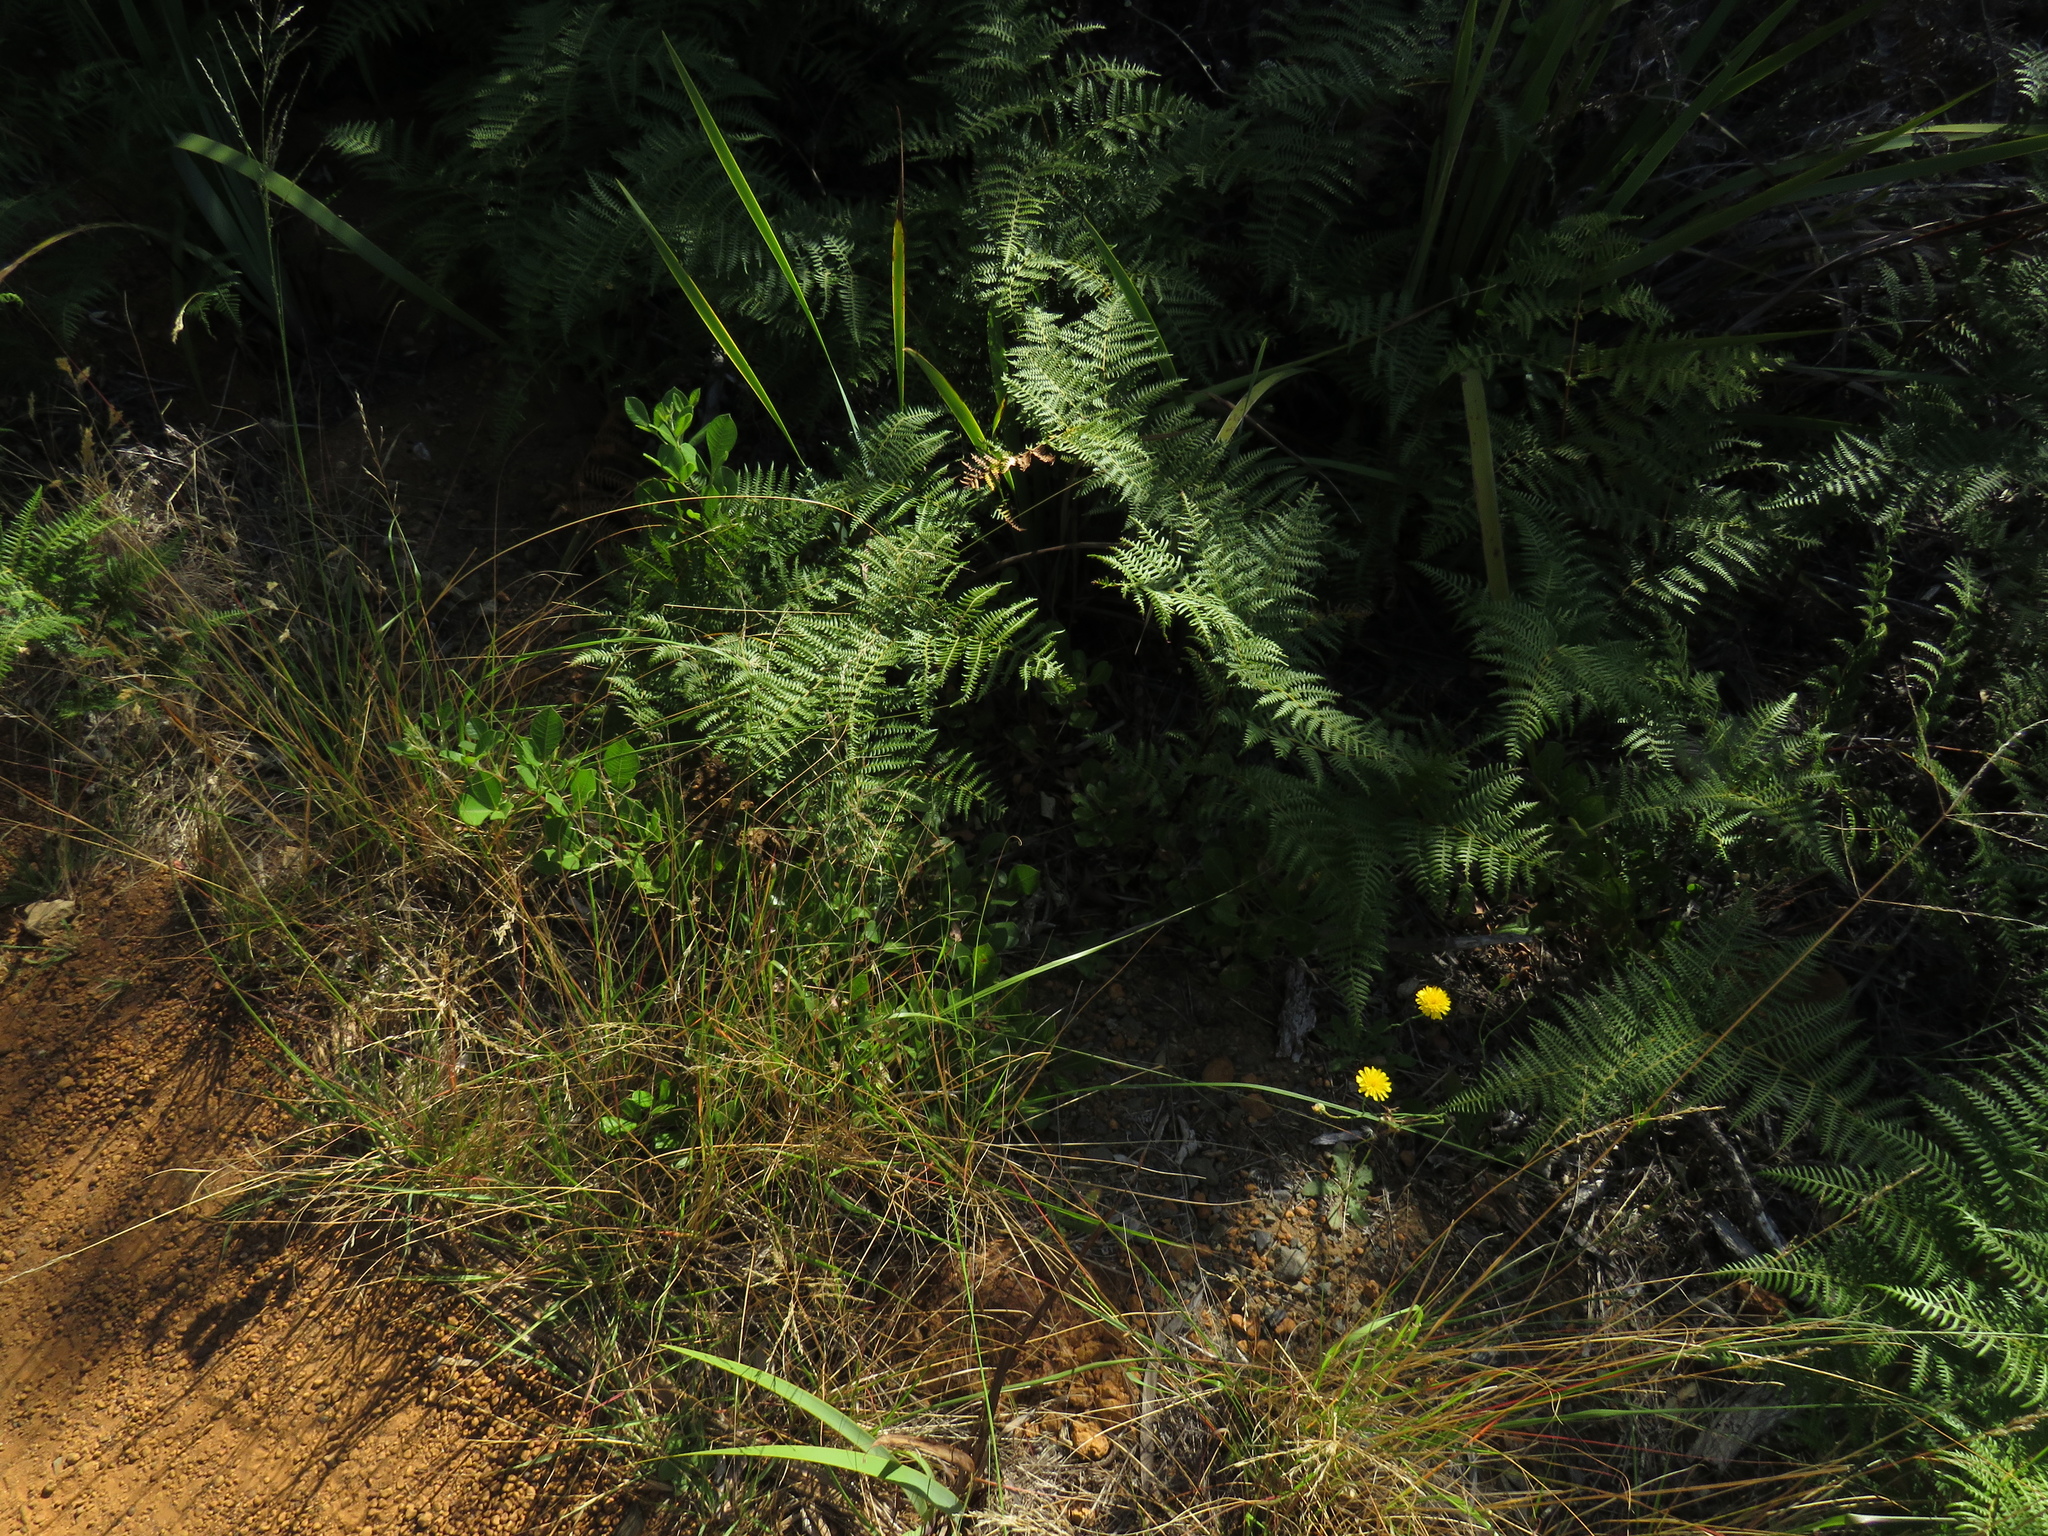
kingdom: Plantae
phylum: Tracheophyta
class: Magnoliopsida
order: Sapindales
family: Anacardiaceae
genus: Searsia
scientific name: Searsia laevigata
